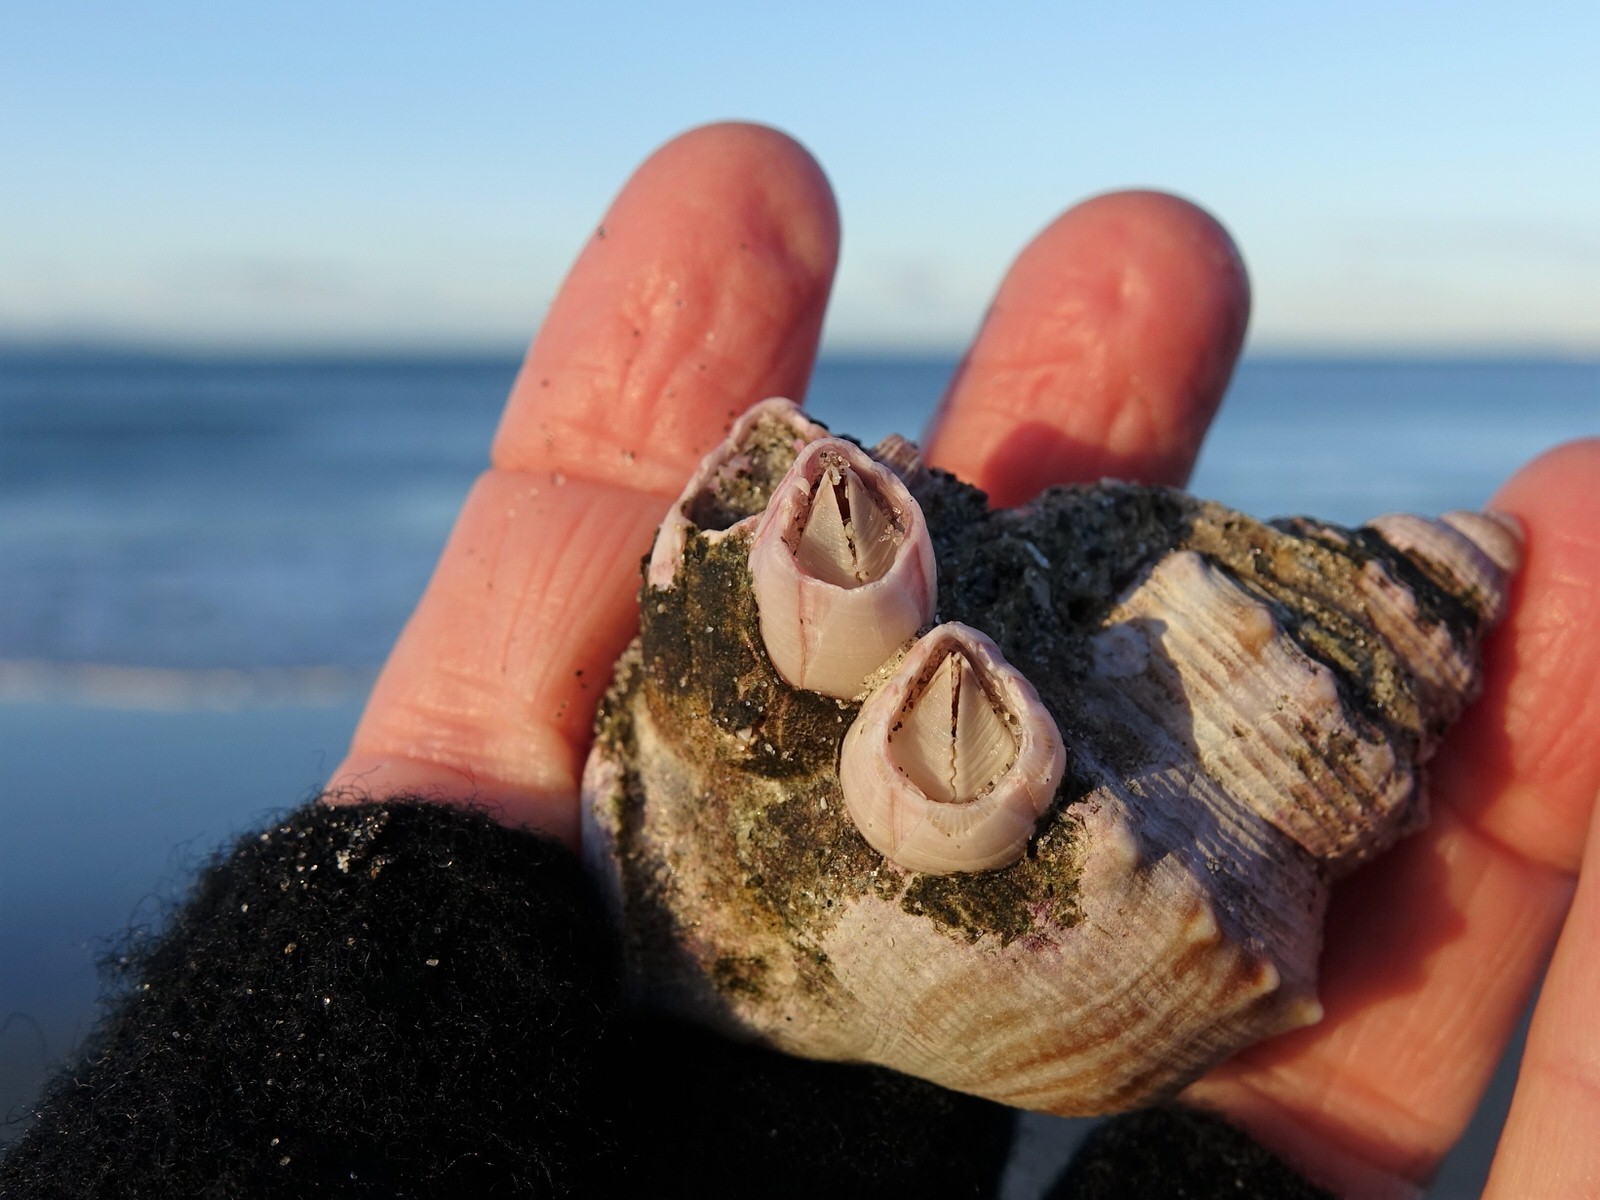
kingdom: Animalia
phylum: Arthropoda
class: Maxillopoda
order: Sessilia
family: Balanidae
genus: Notomegabalanus
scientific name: Notomegabalanus decorus
